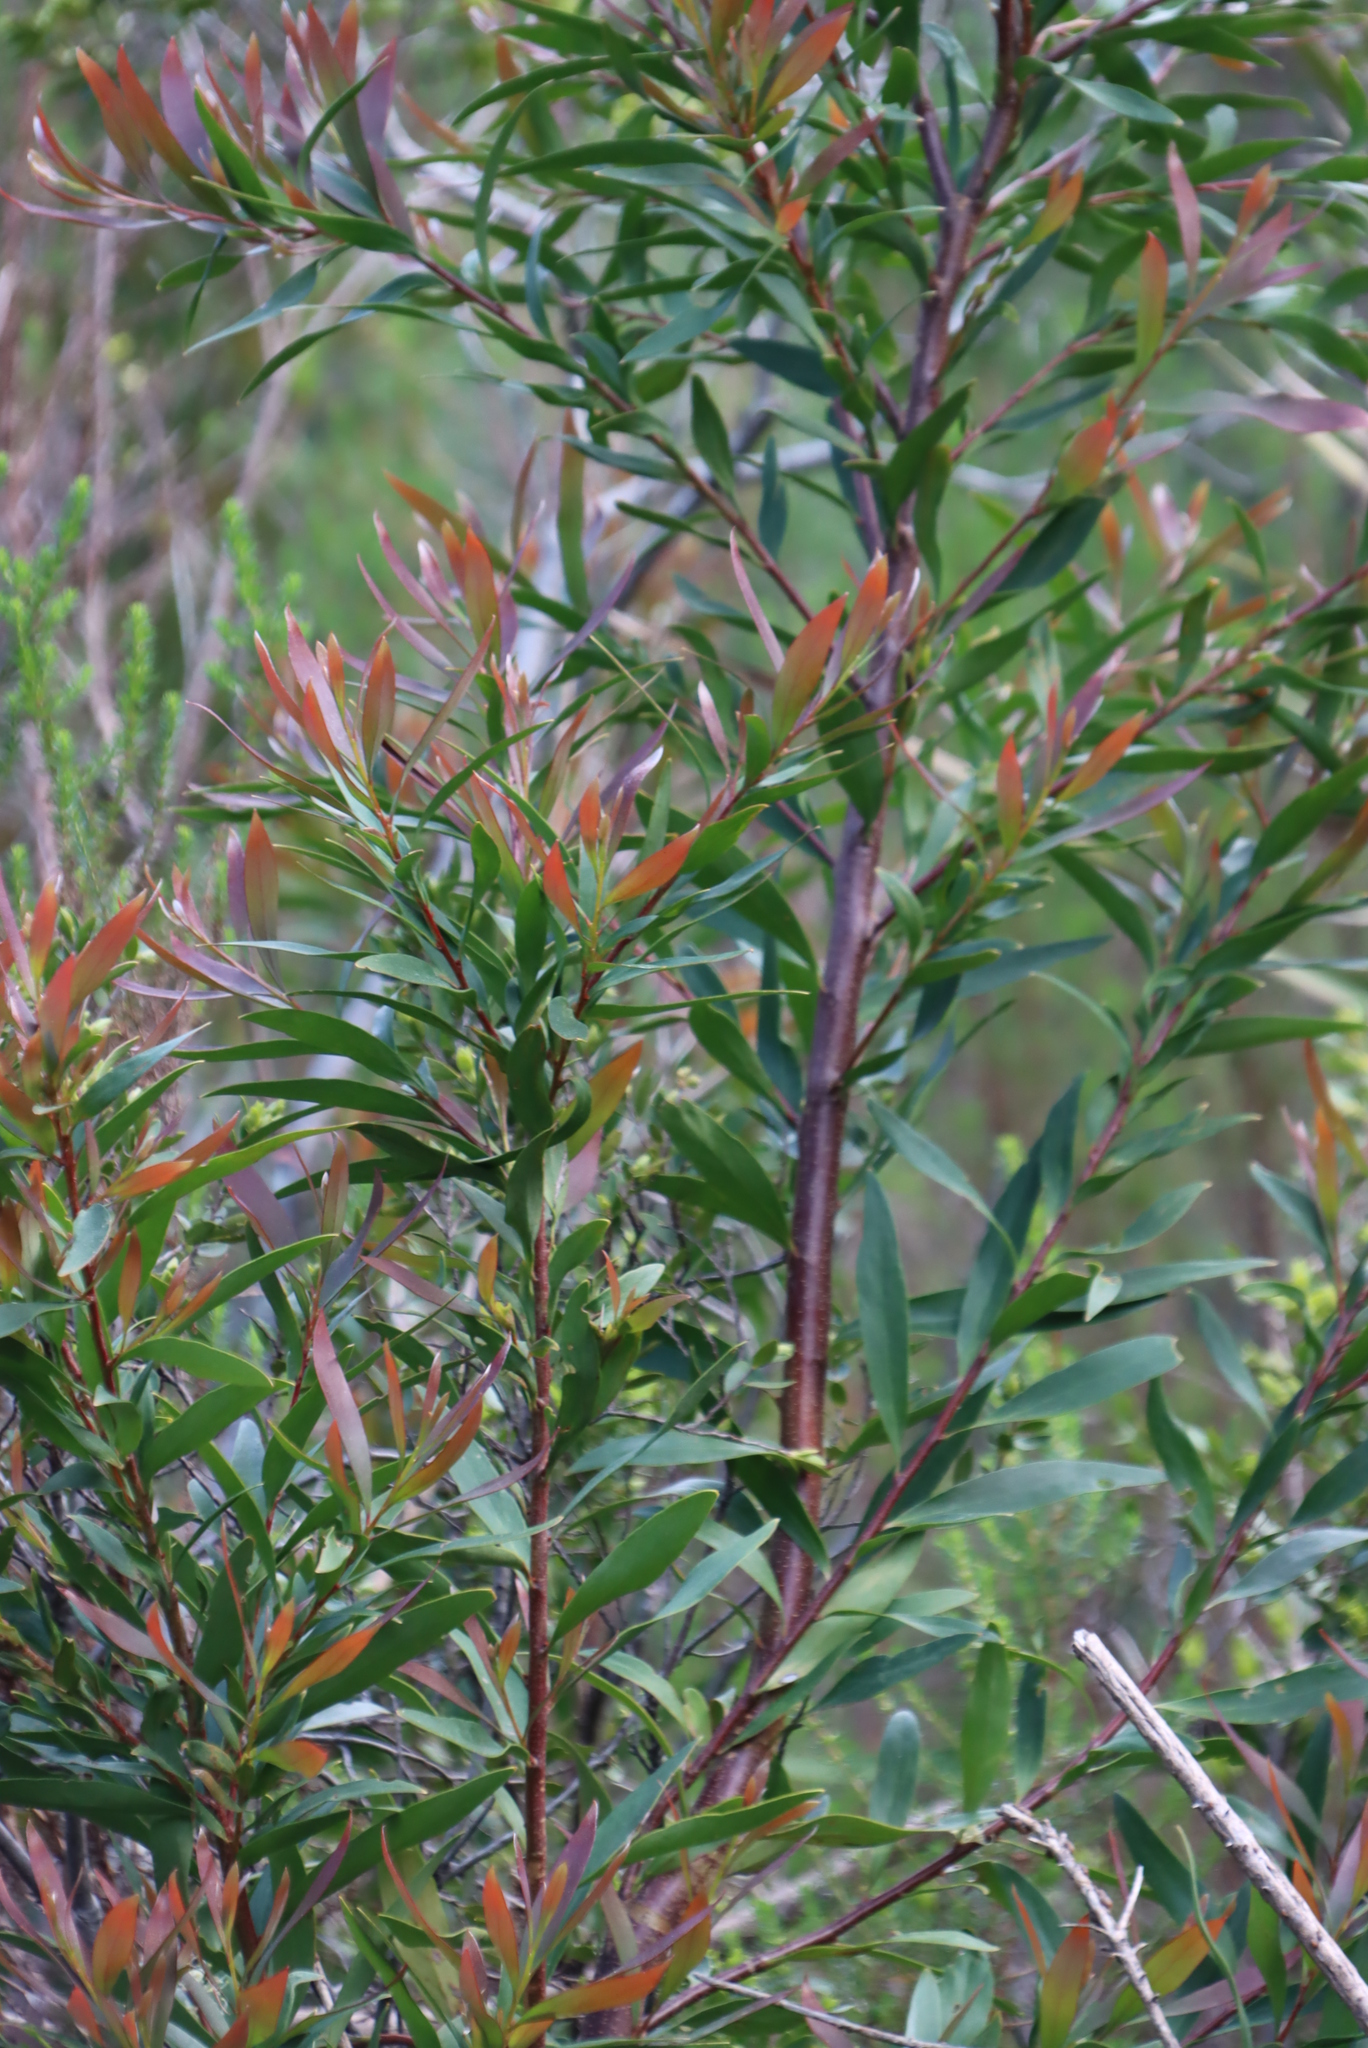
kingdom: Plantae
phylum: Tracheophyta
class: Magnoliopsida
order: Proteales
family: Proteaceae
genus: Hakea
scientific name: Hakea salicifolia
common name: Willow hakea
